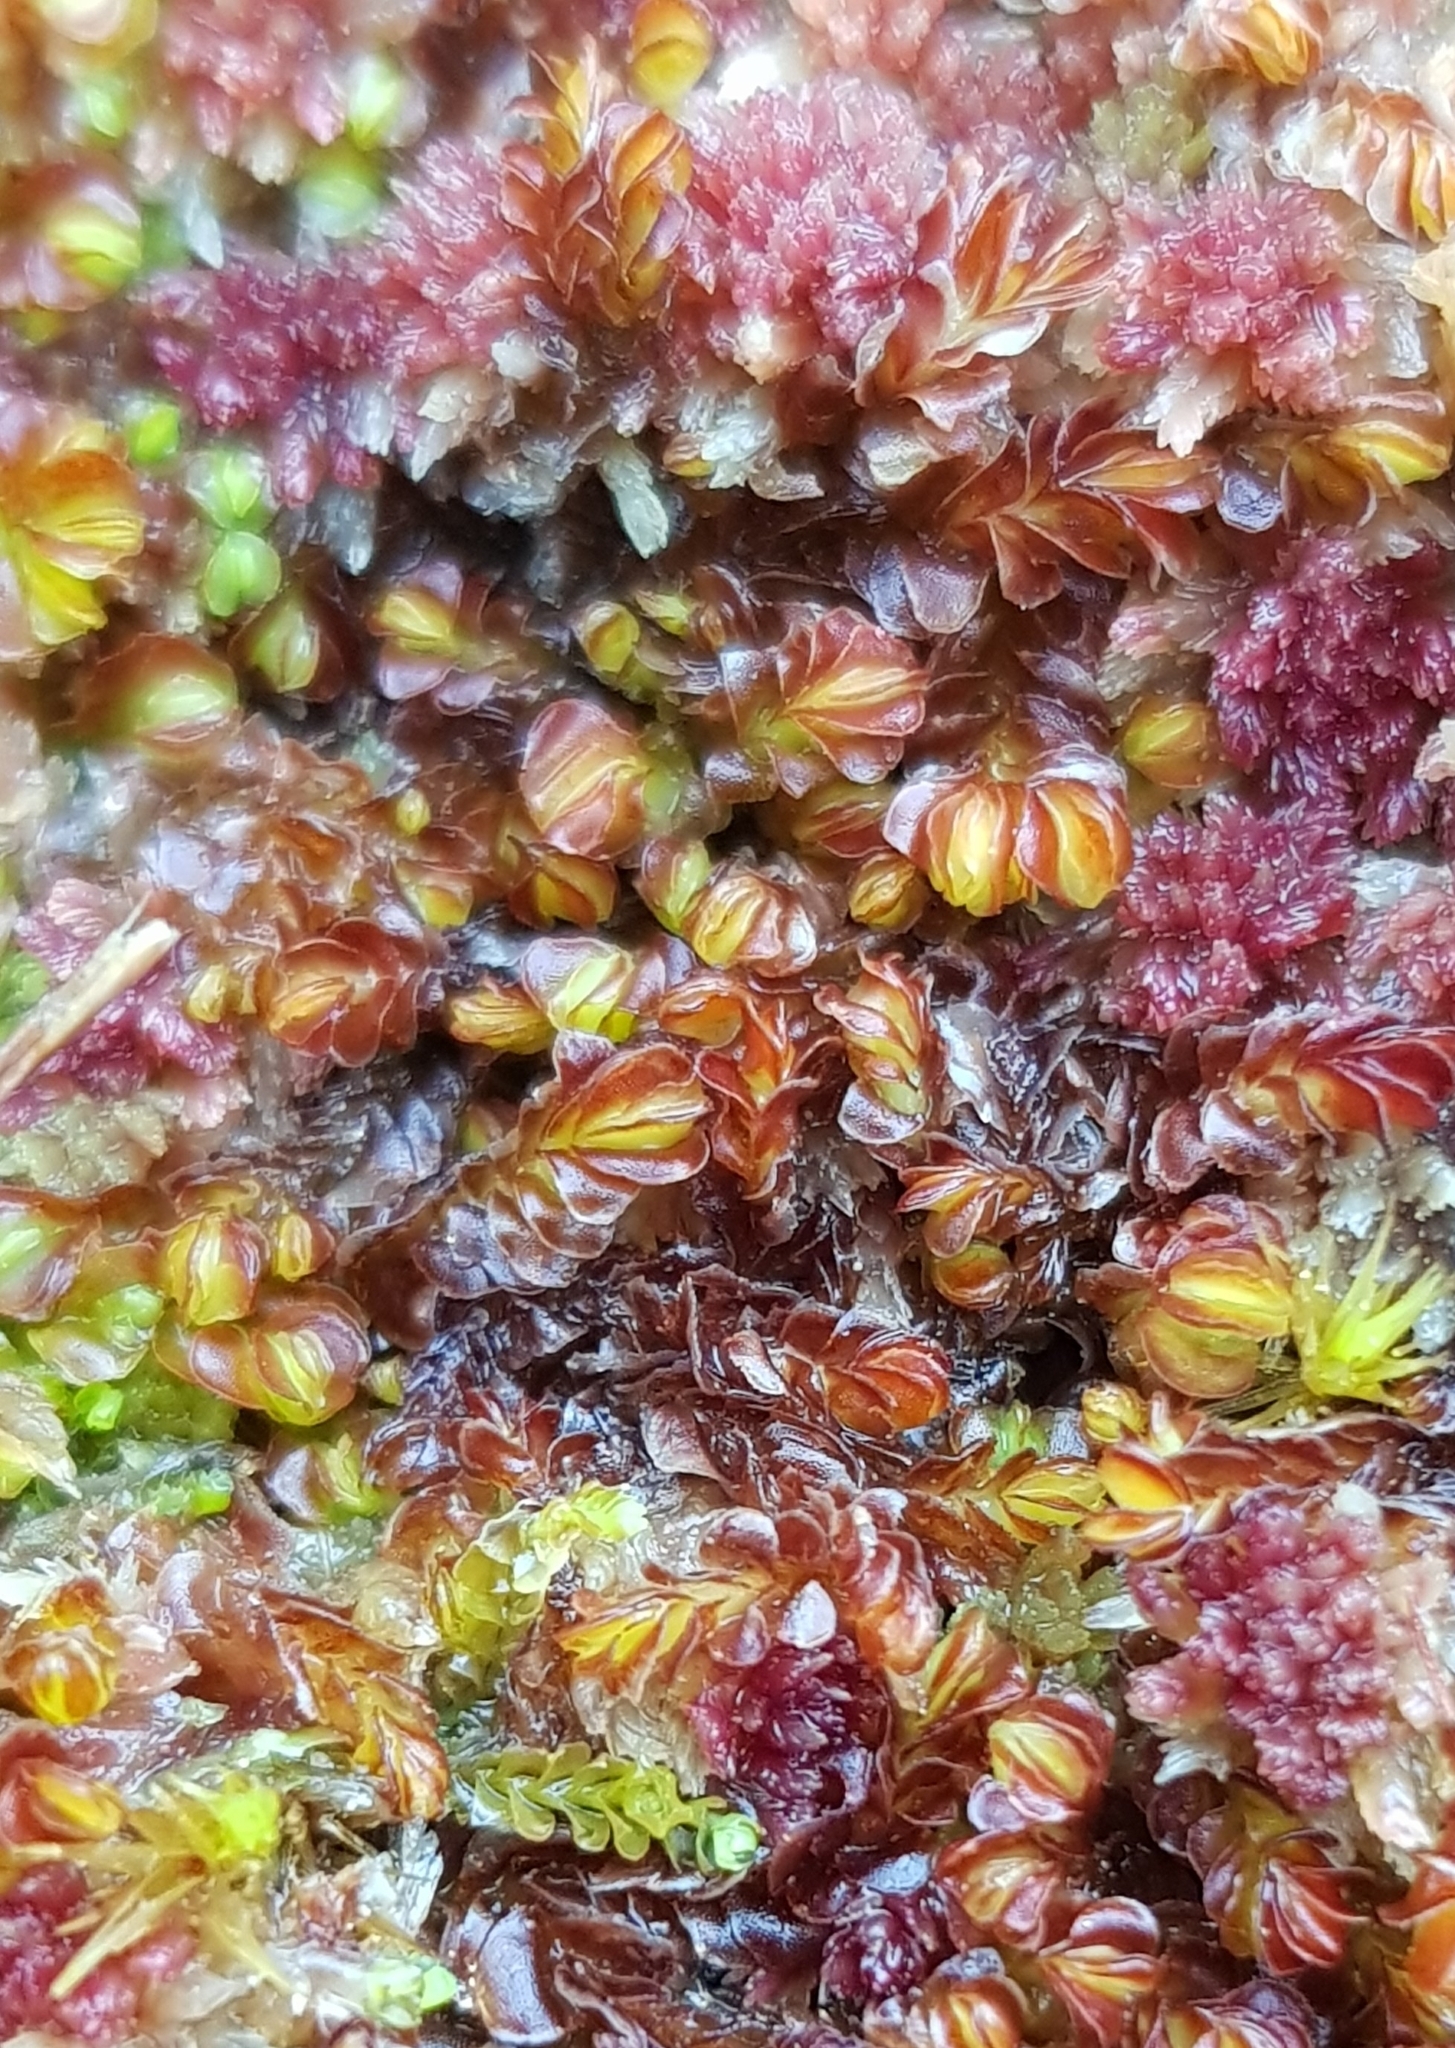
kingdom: Plantae
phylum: Marchantiophyta
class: Jungermanniopsida
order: Jungermanniales
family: Myliaceae
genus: Mylia
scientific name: Mylia taylorii
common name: Taylor s flapwort
